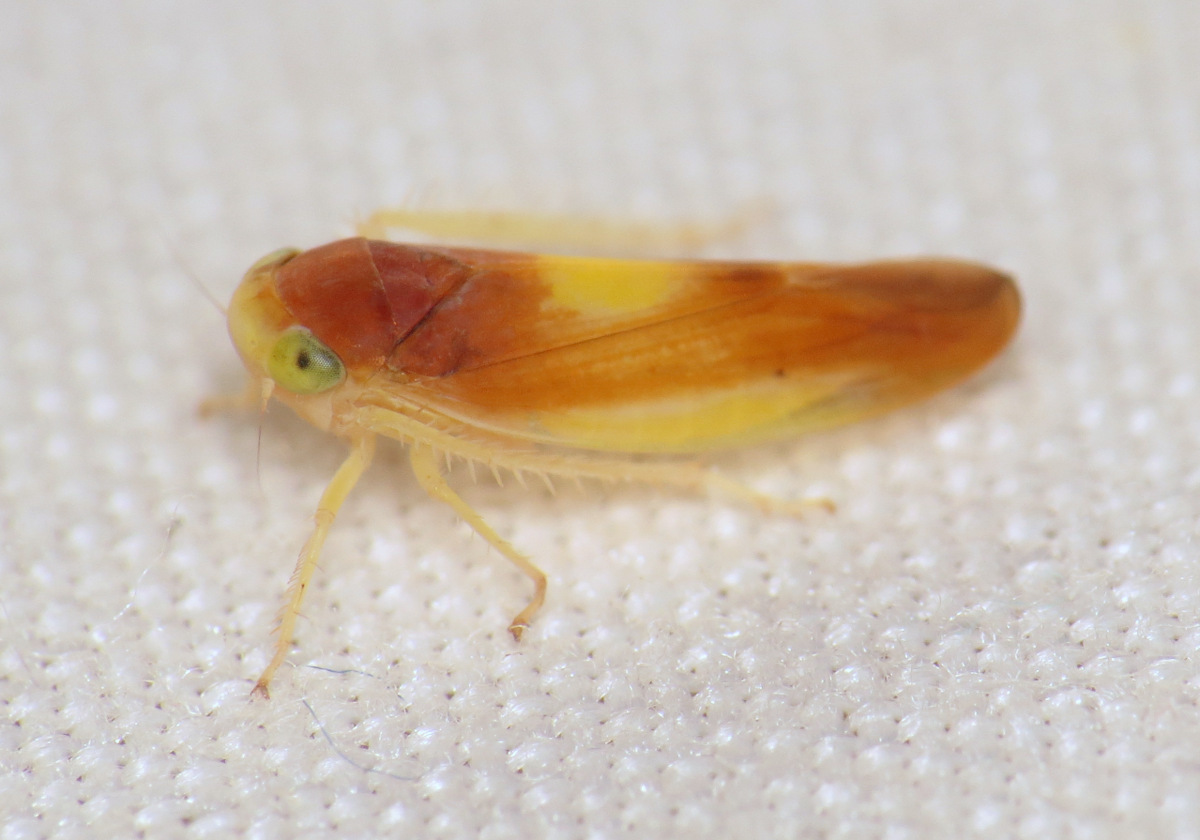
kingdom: Animalia
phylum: Arthropoda
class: Insecta
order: Hemiptera
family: Cicadellidae
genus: Colladonus
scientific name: Colladonus setaceus
